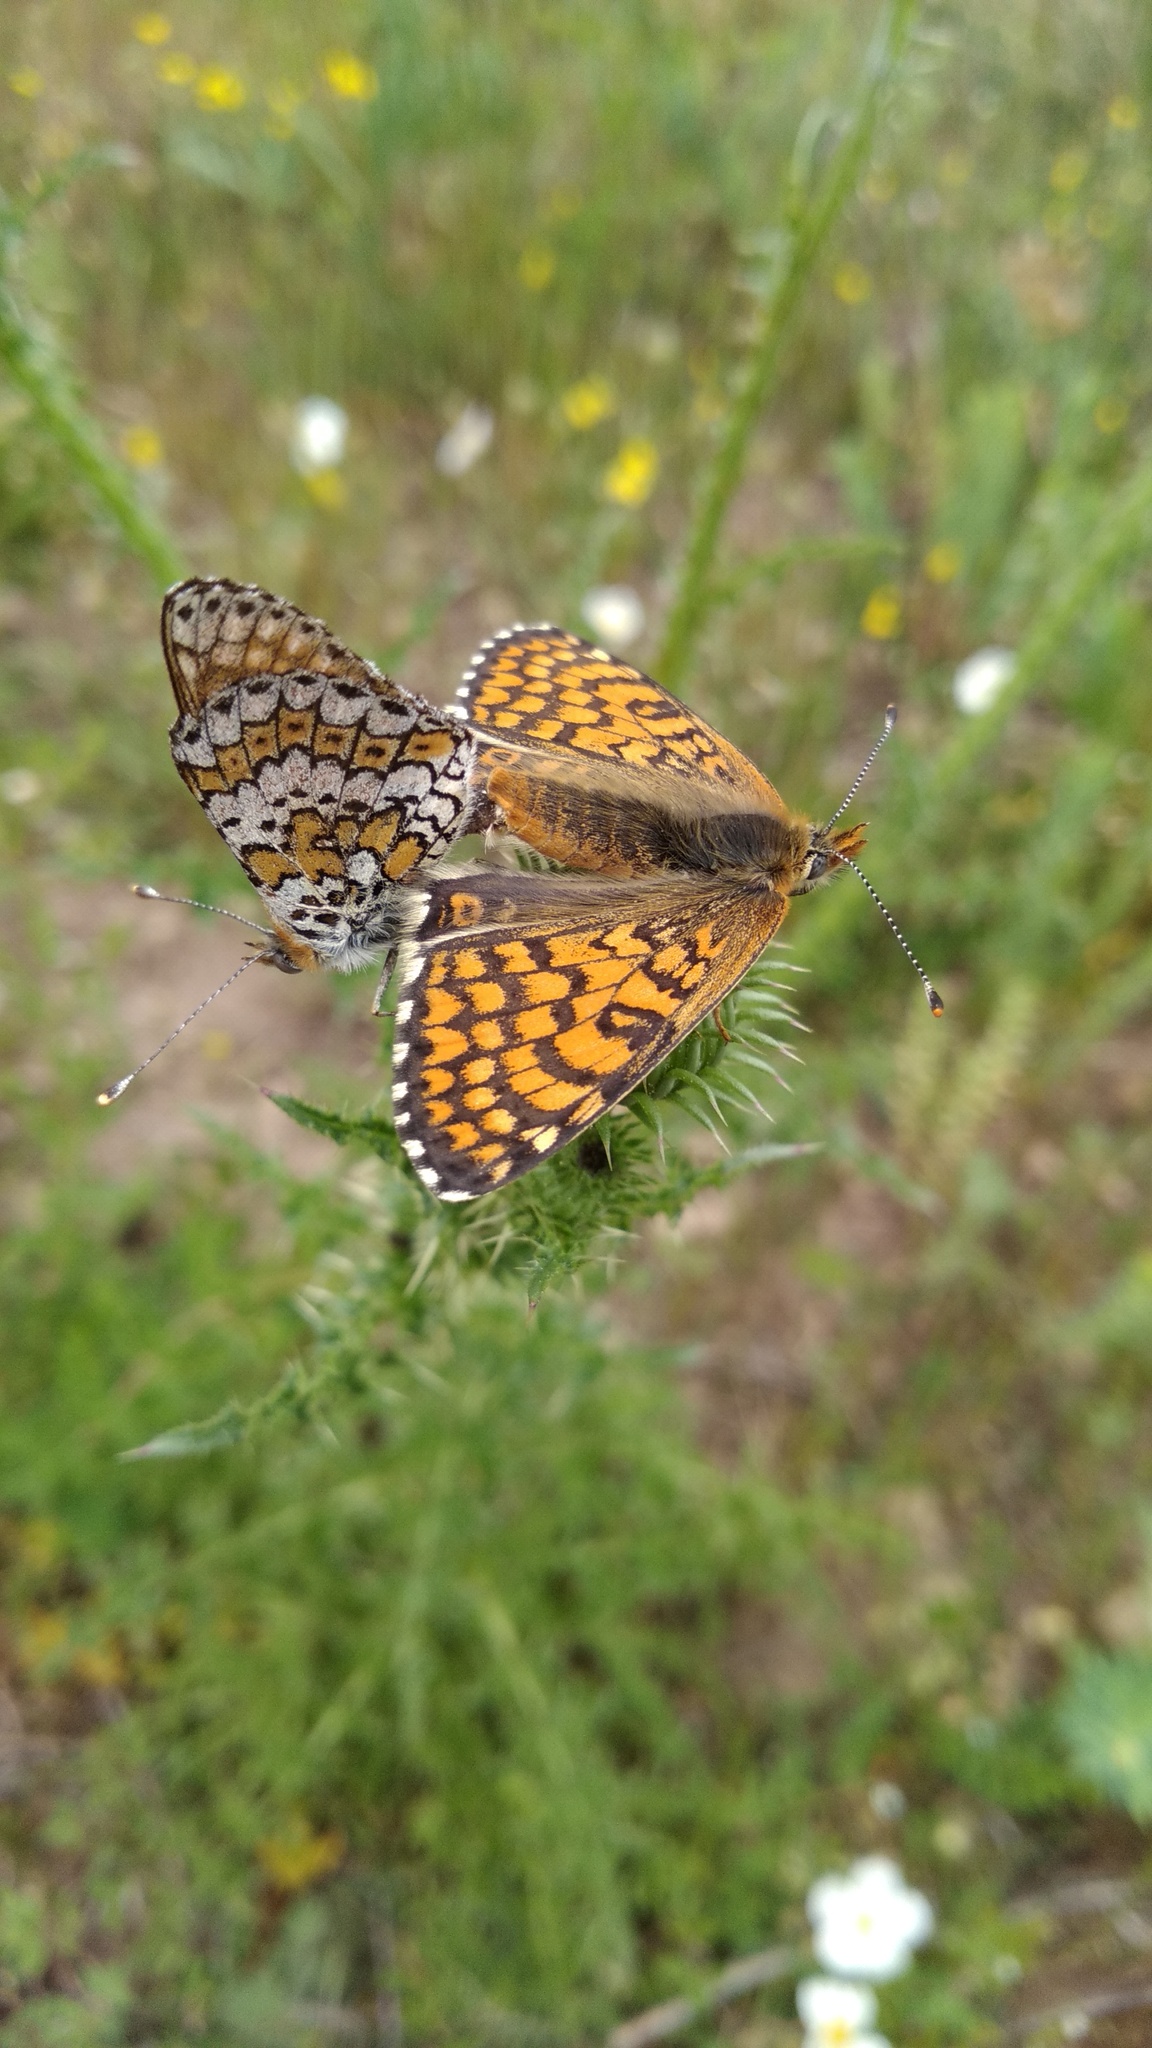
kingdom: Animalia
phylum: Arthropoda
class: Insecta
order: Lepidoptera
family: Nymphalidae
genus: Melitaea
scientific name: Melitaea cinxia
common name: Glanville fritillary
